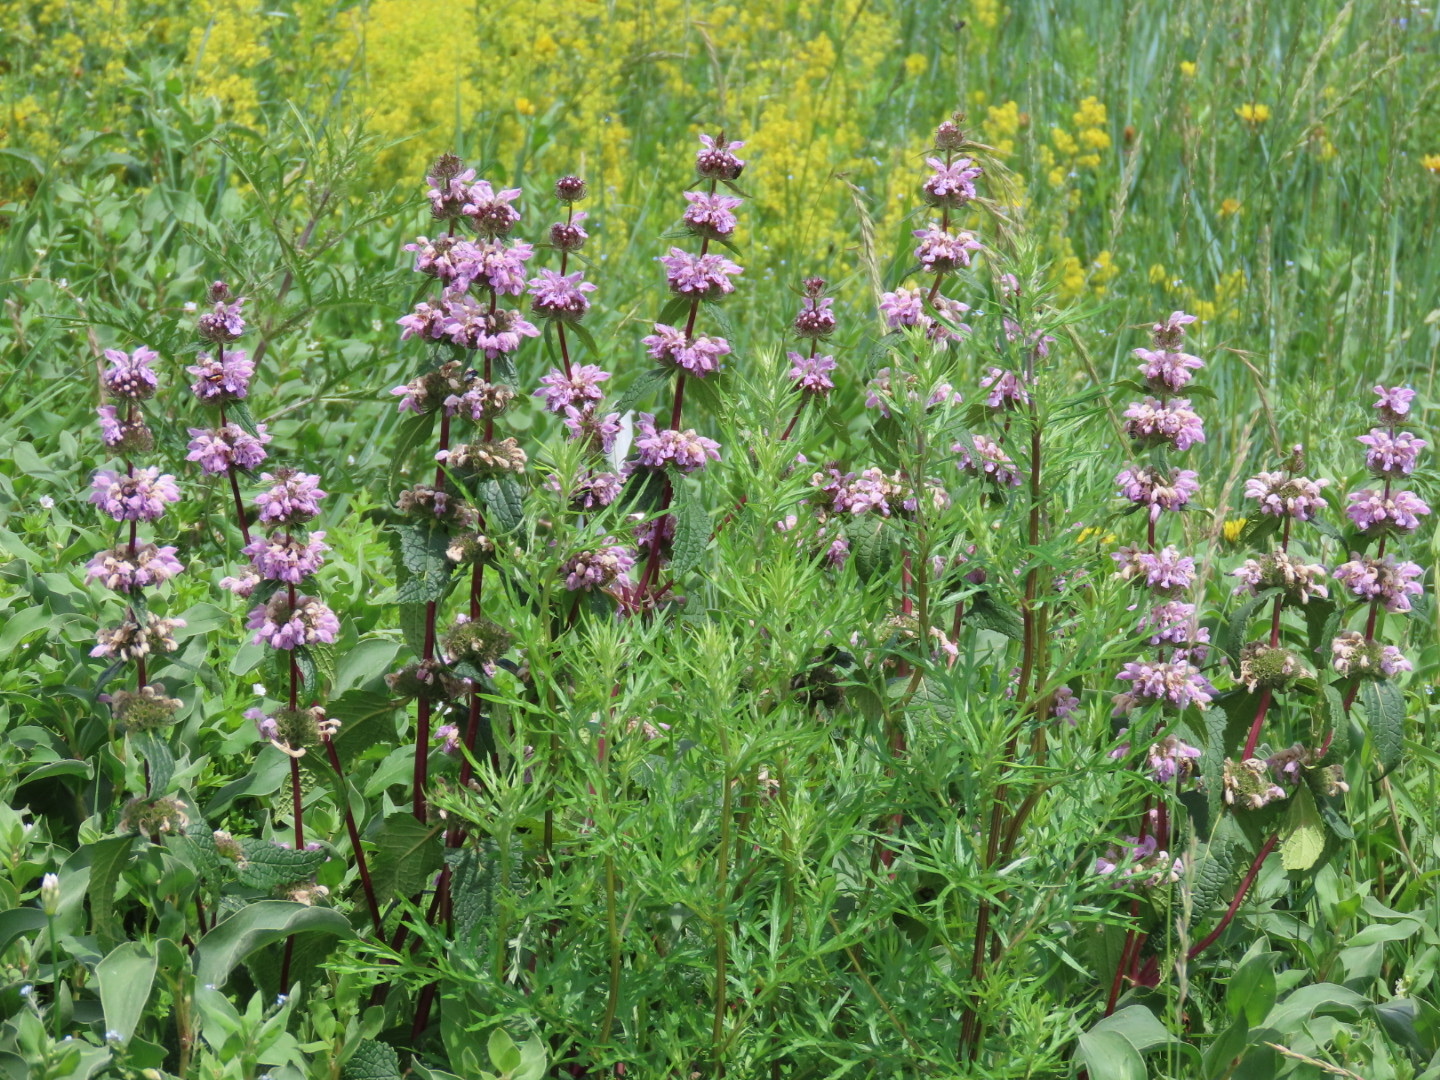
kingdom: Plantae
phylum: Tracheophyta
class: Magnoliopsida
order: Lamiales
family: Lamiaceae
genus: Phlomoides
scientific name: Phlomoides tuberosa
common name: Tuberous jerusalem sage
